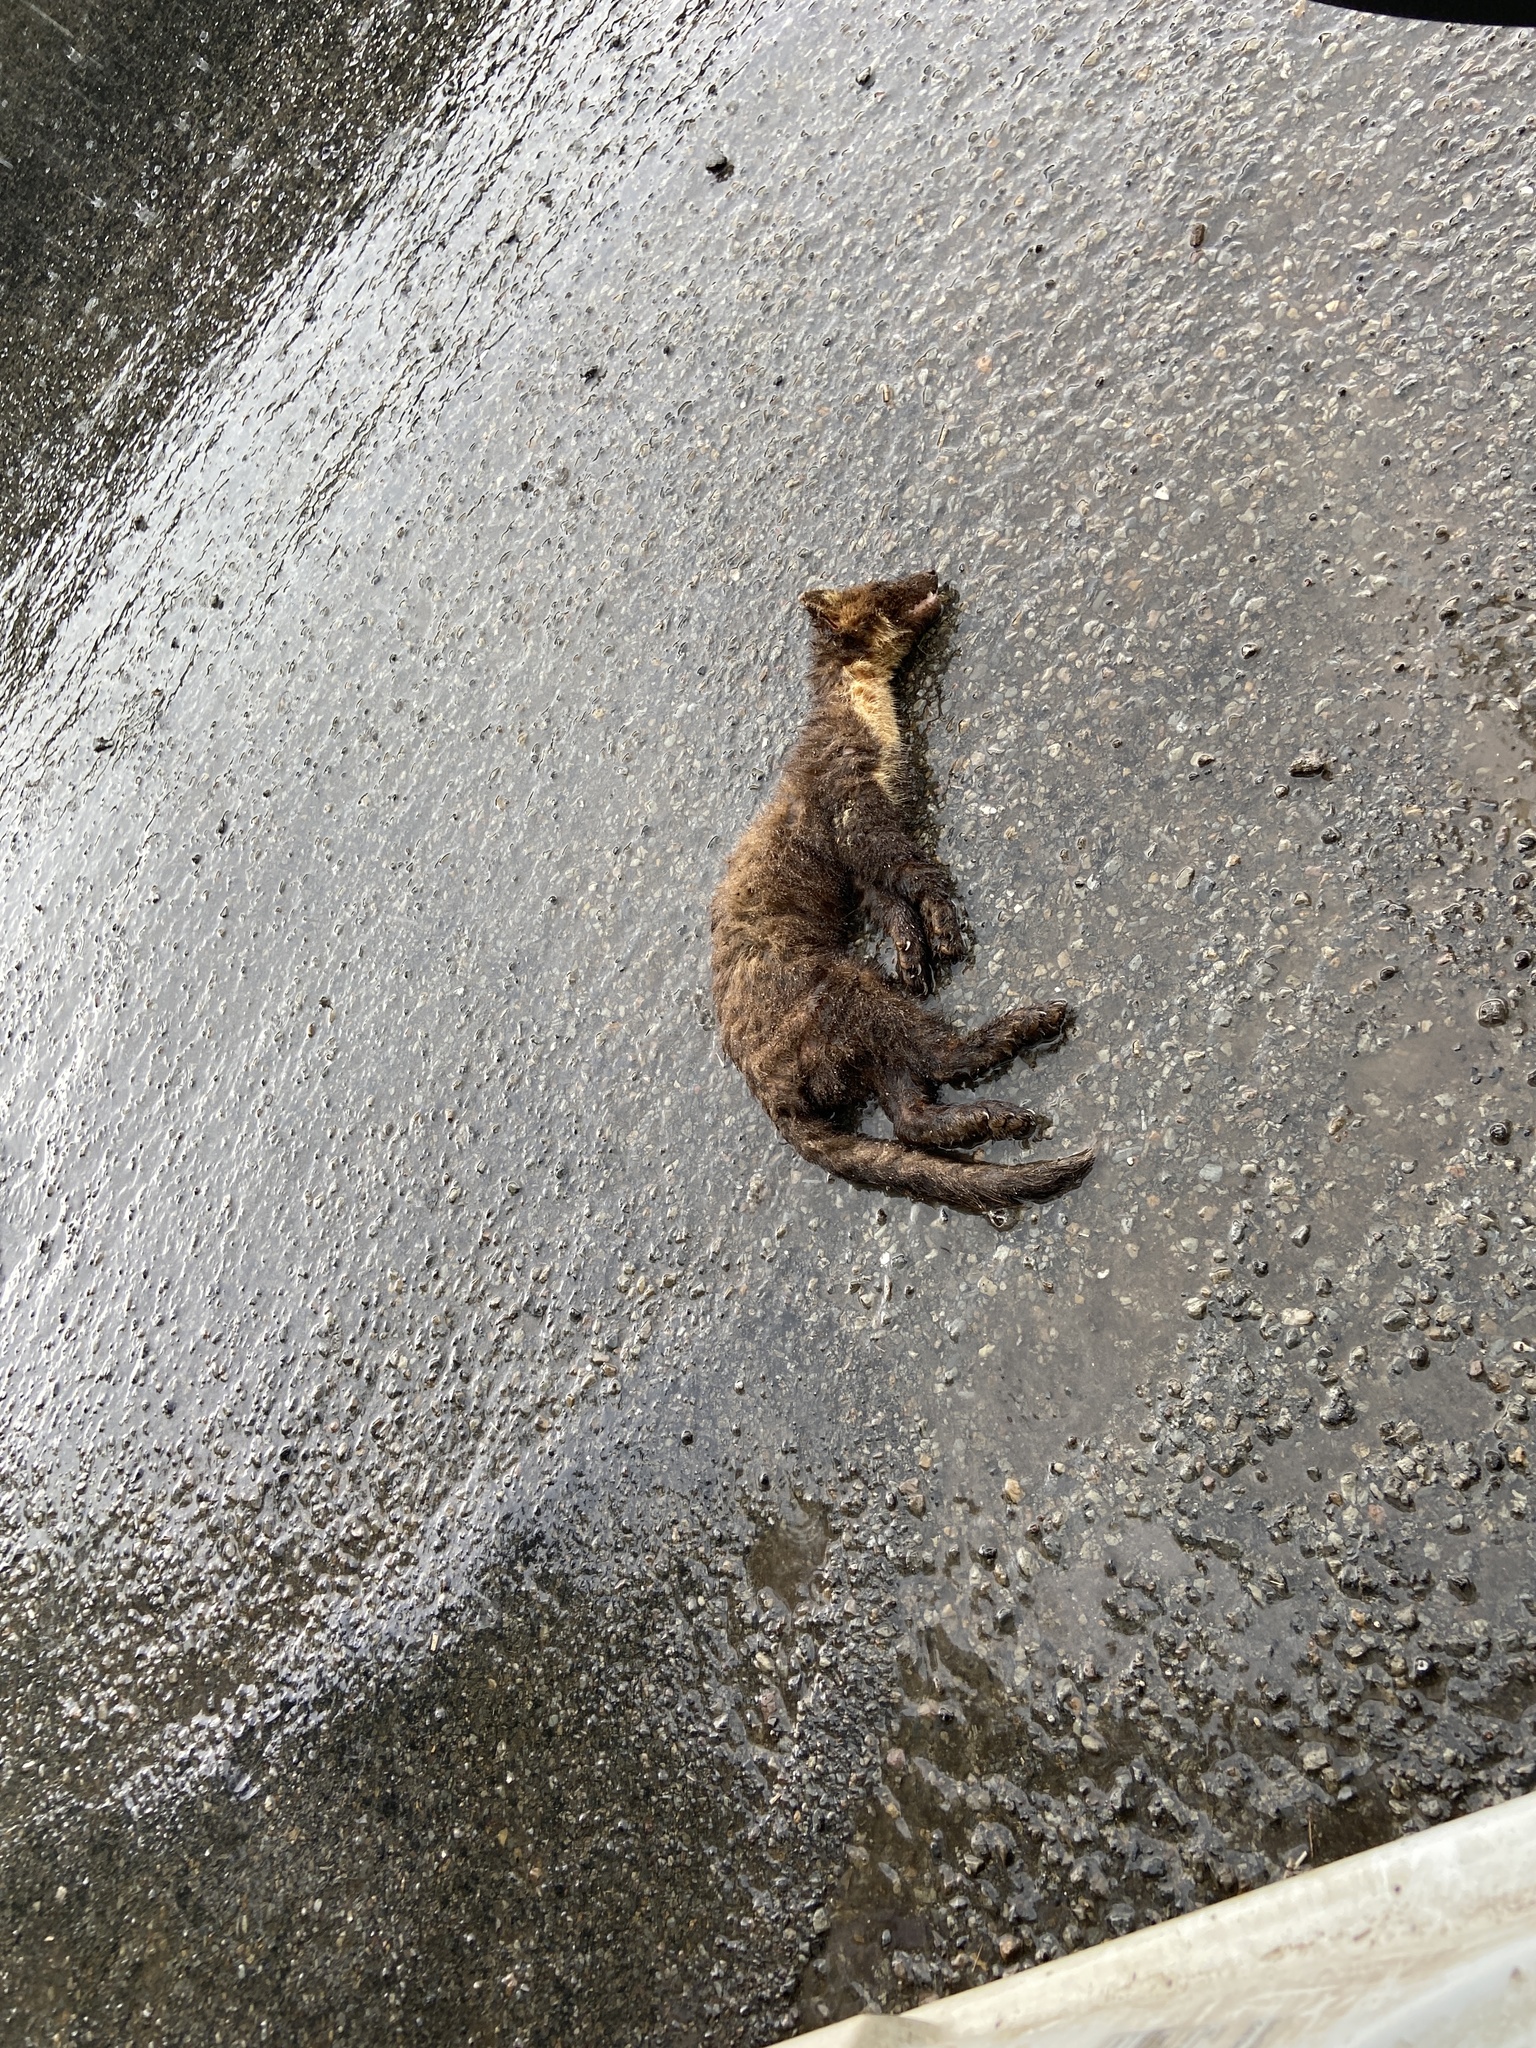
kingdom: Animalia
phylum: Chordata
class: Mammalia
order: Carnivora
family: Mustelidae
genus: Martes
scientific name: Martes martes
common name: European pine marten
